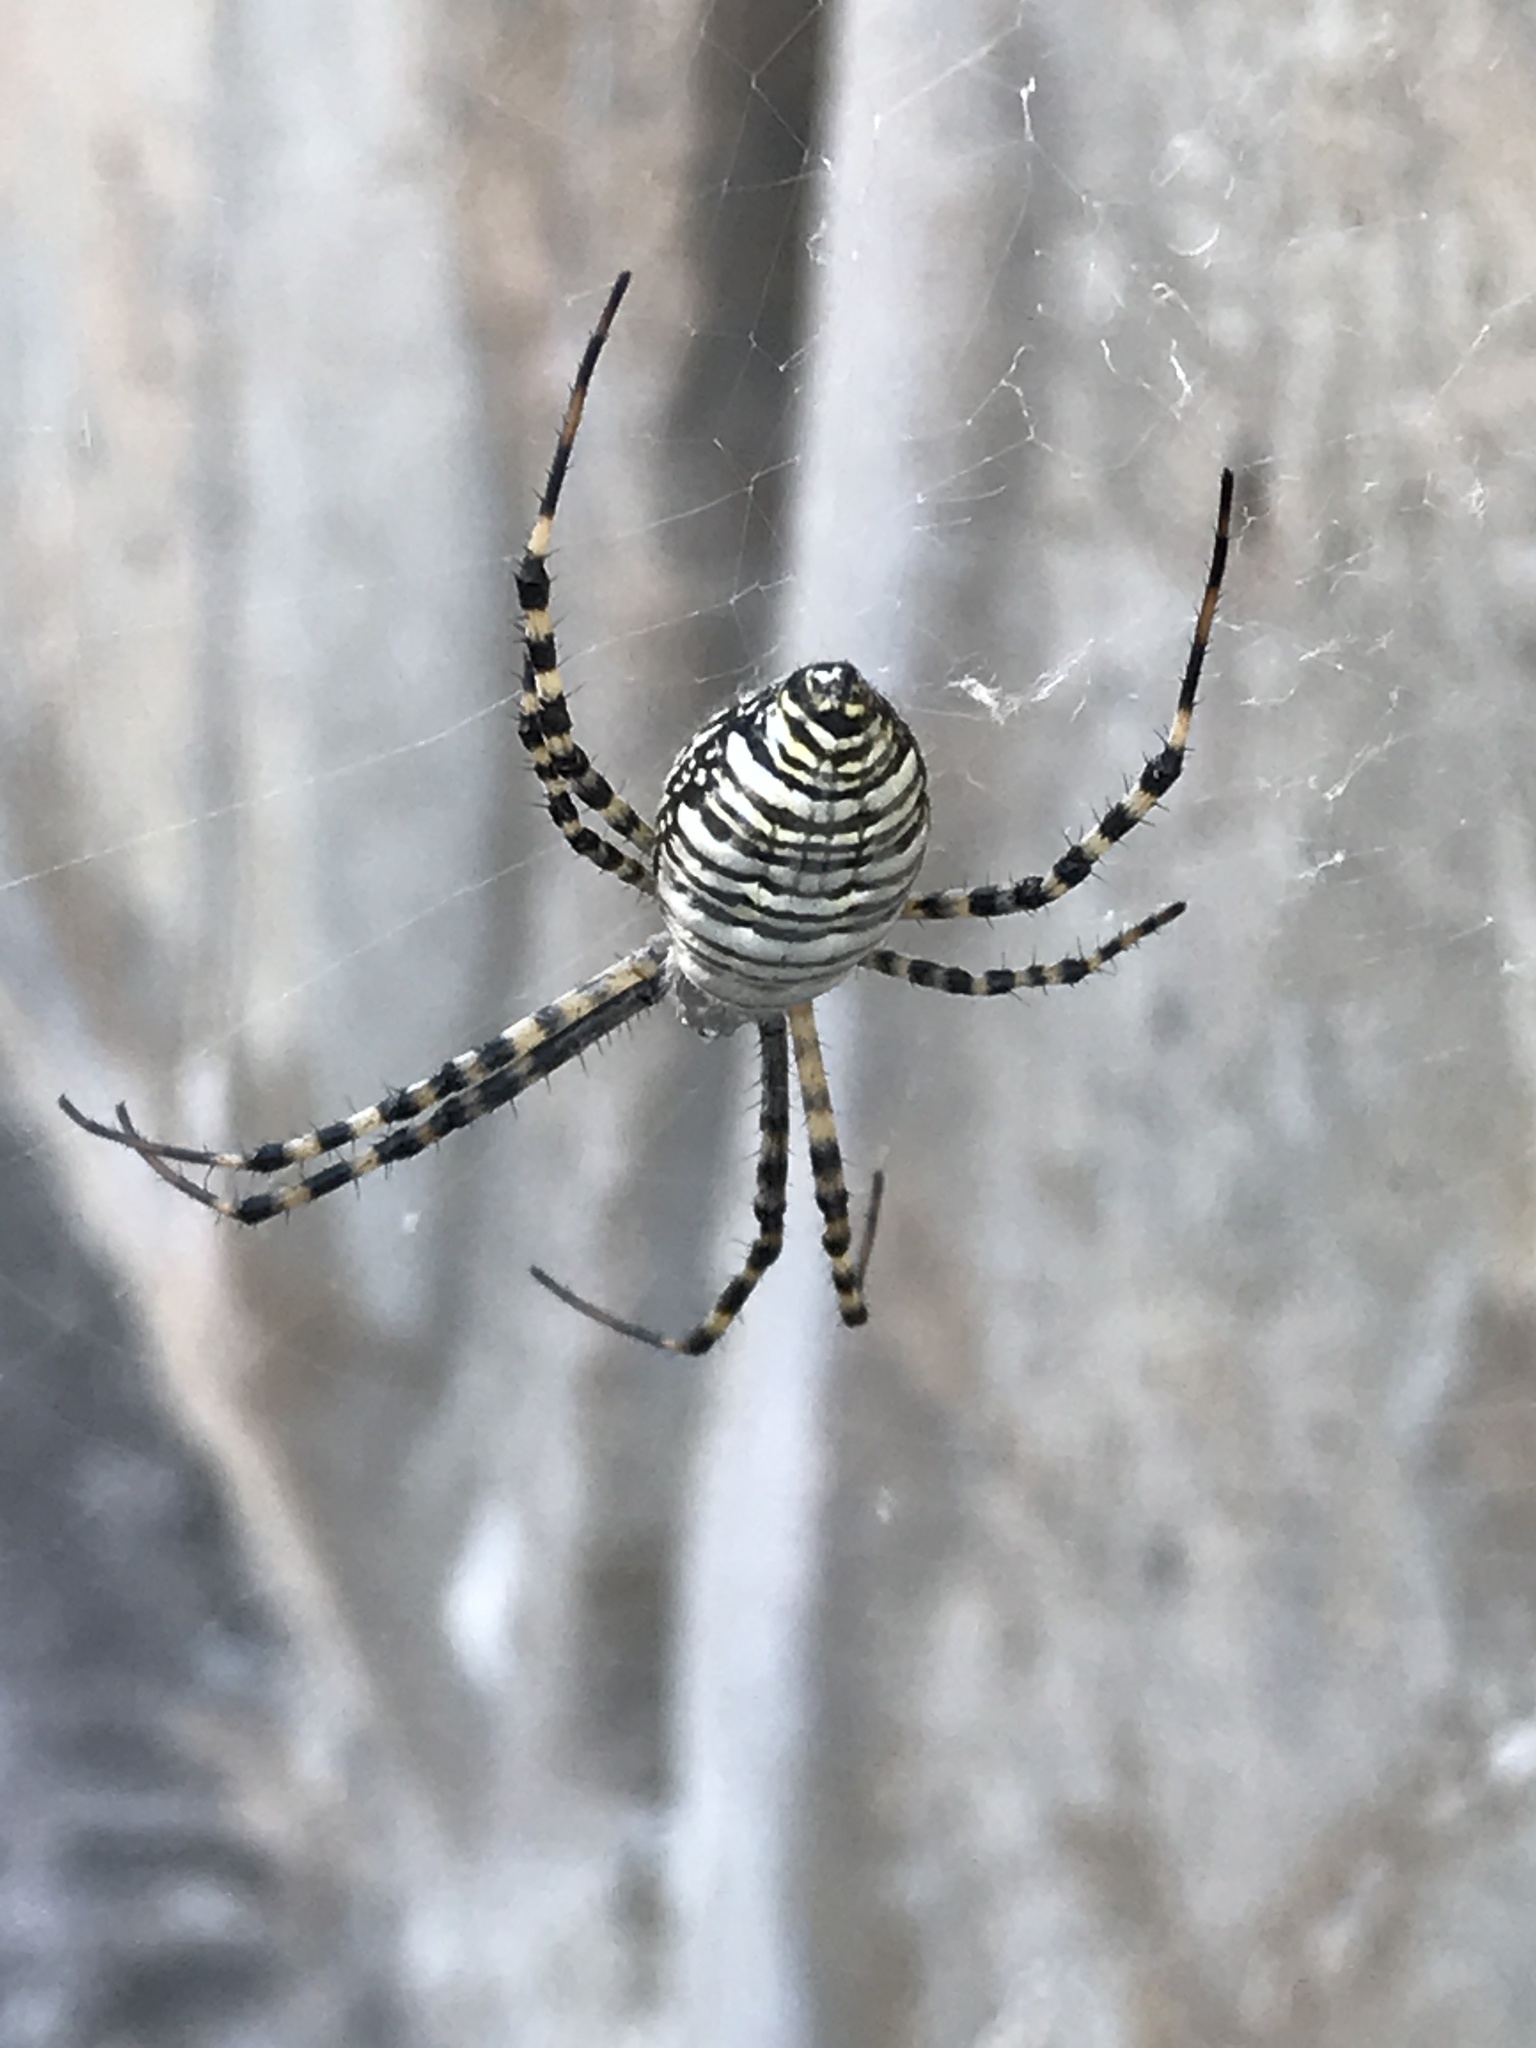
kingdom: Animalia
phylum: Arthropoda
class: Arachnida
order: Araneae
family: Araneidae
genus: Argiope
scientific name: Argiope trifasciata
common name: Banded garden spider
